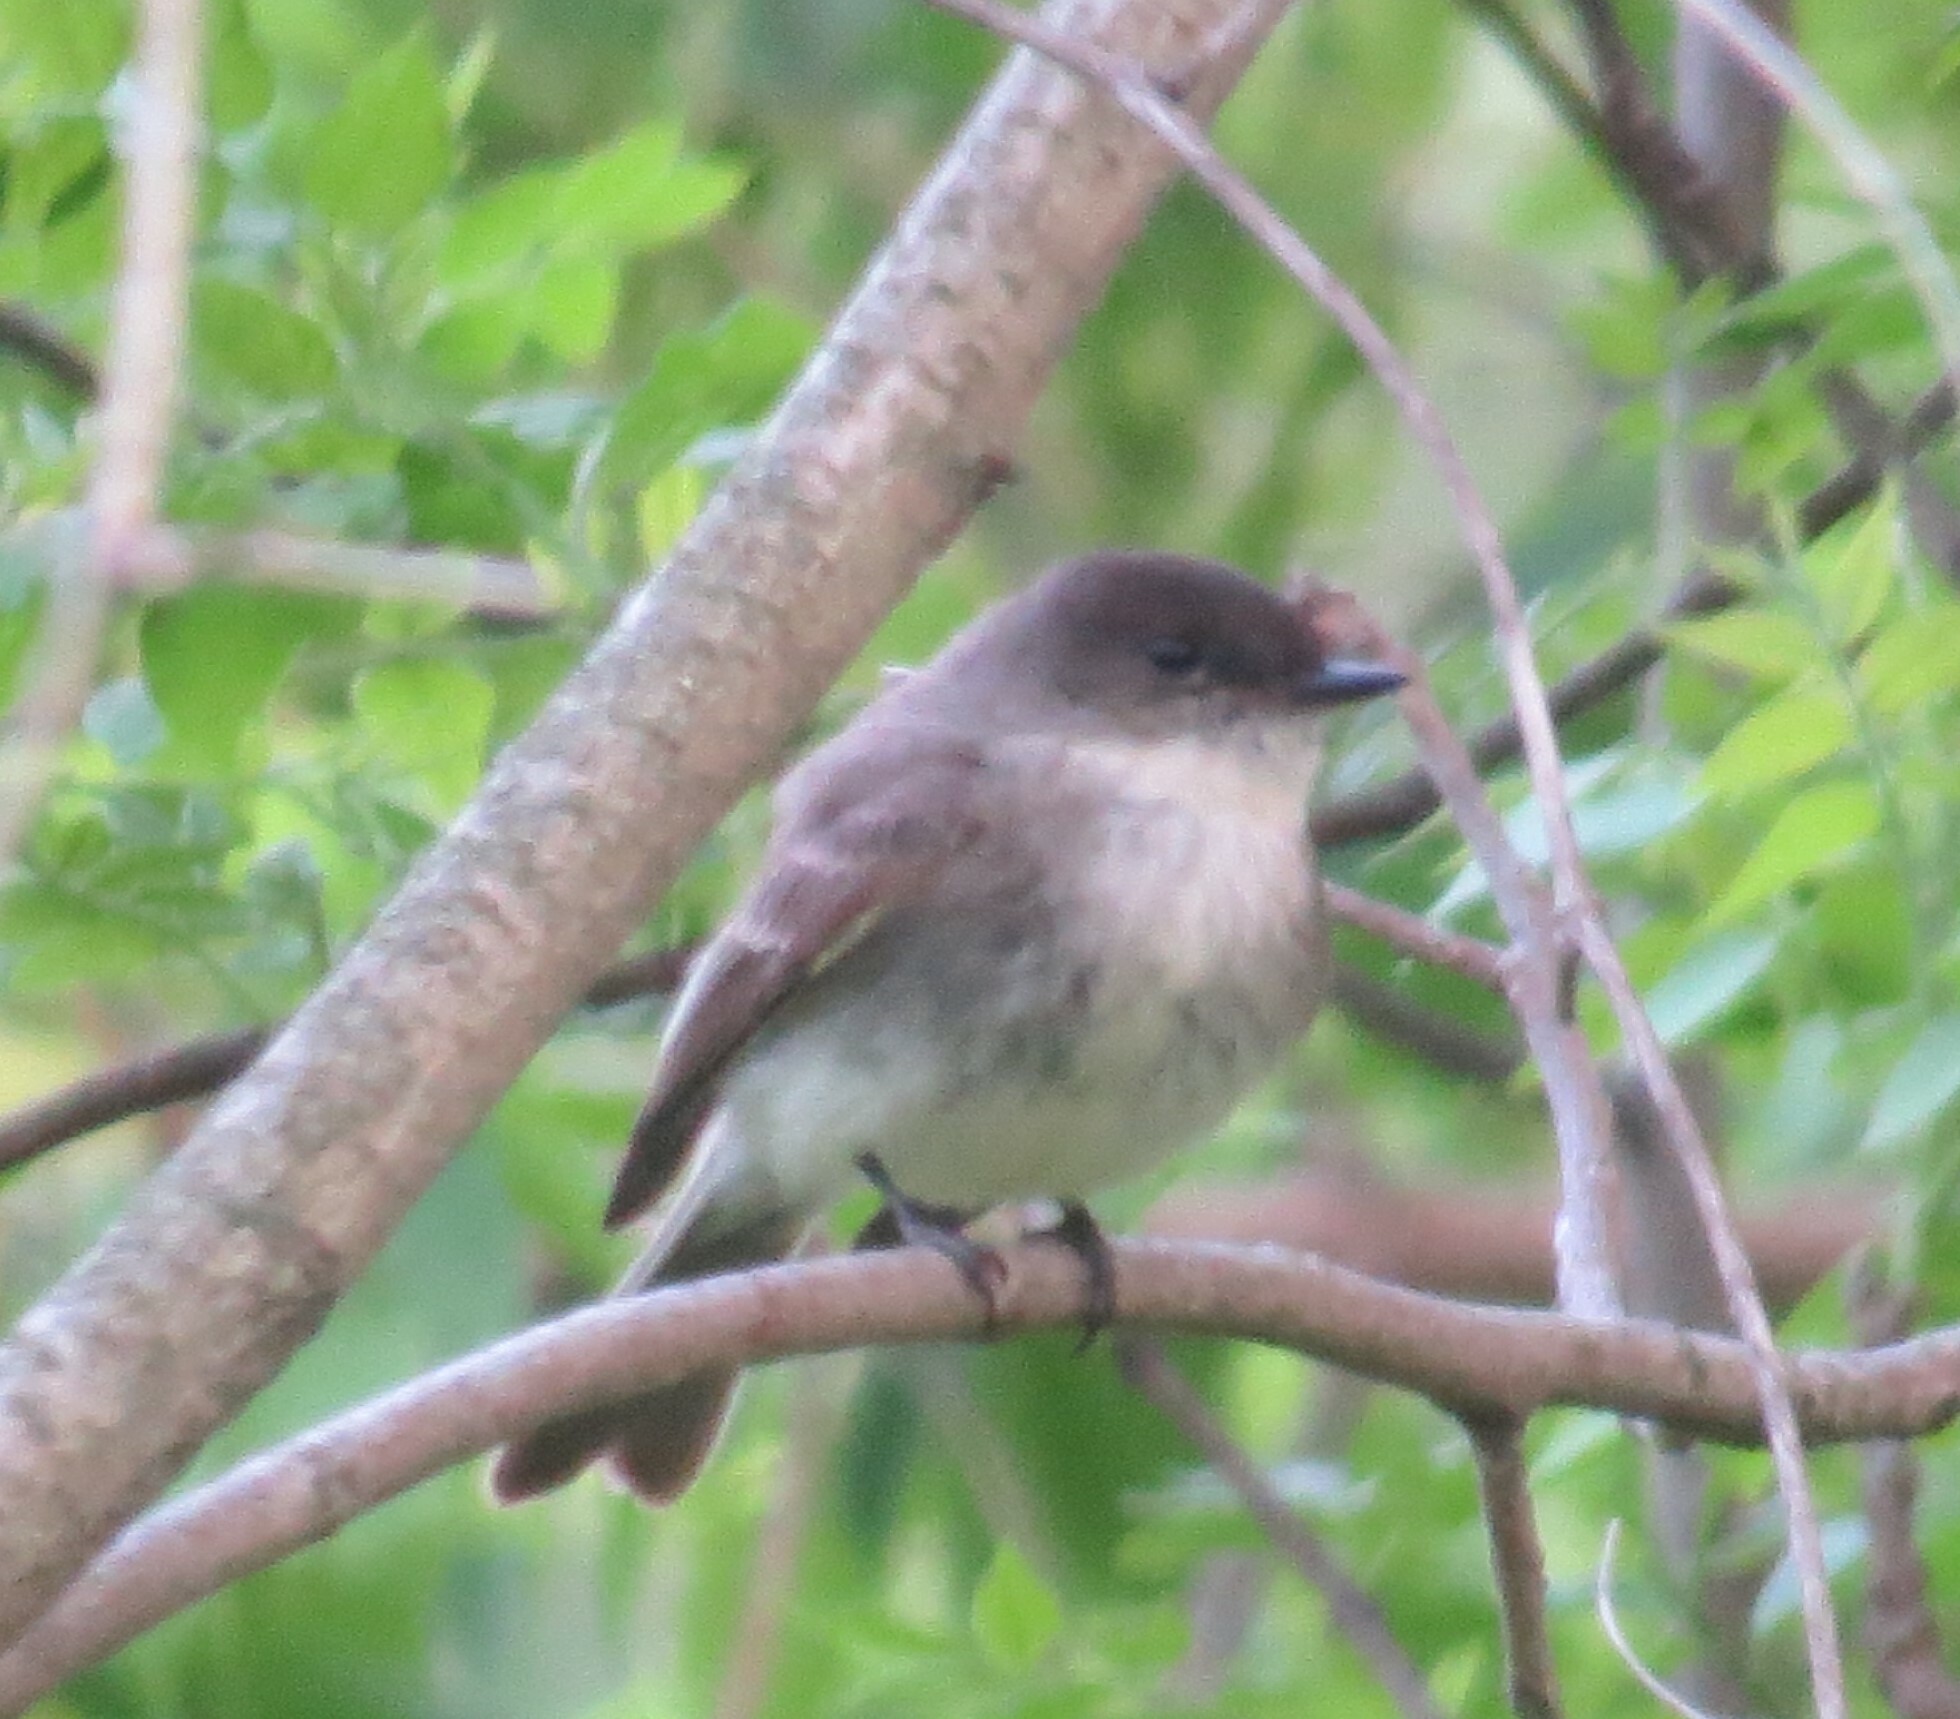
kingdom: Animalia
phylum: Chordata
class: Aves
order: Passeriformes
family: Tyrannidae
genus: Sayornis
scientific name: Sayornis phoebe
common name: Eastern phoebe
